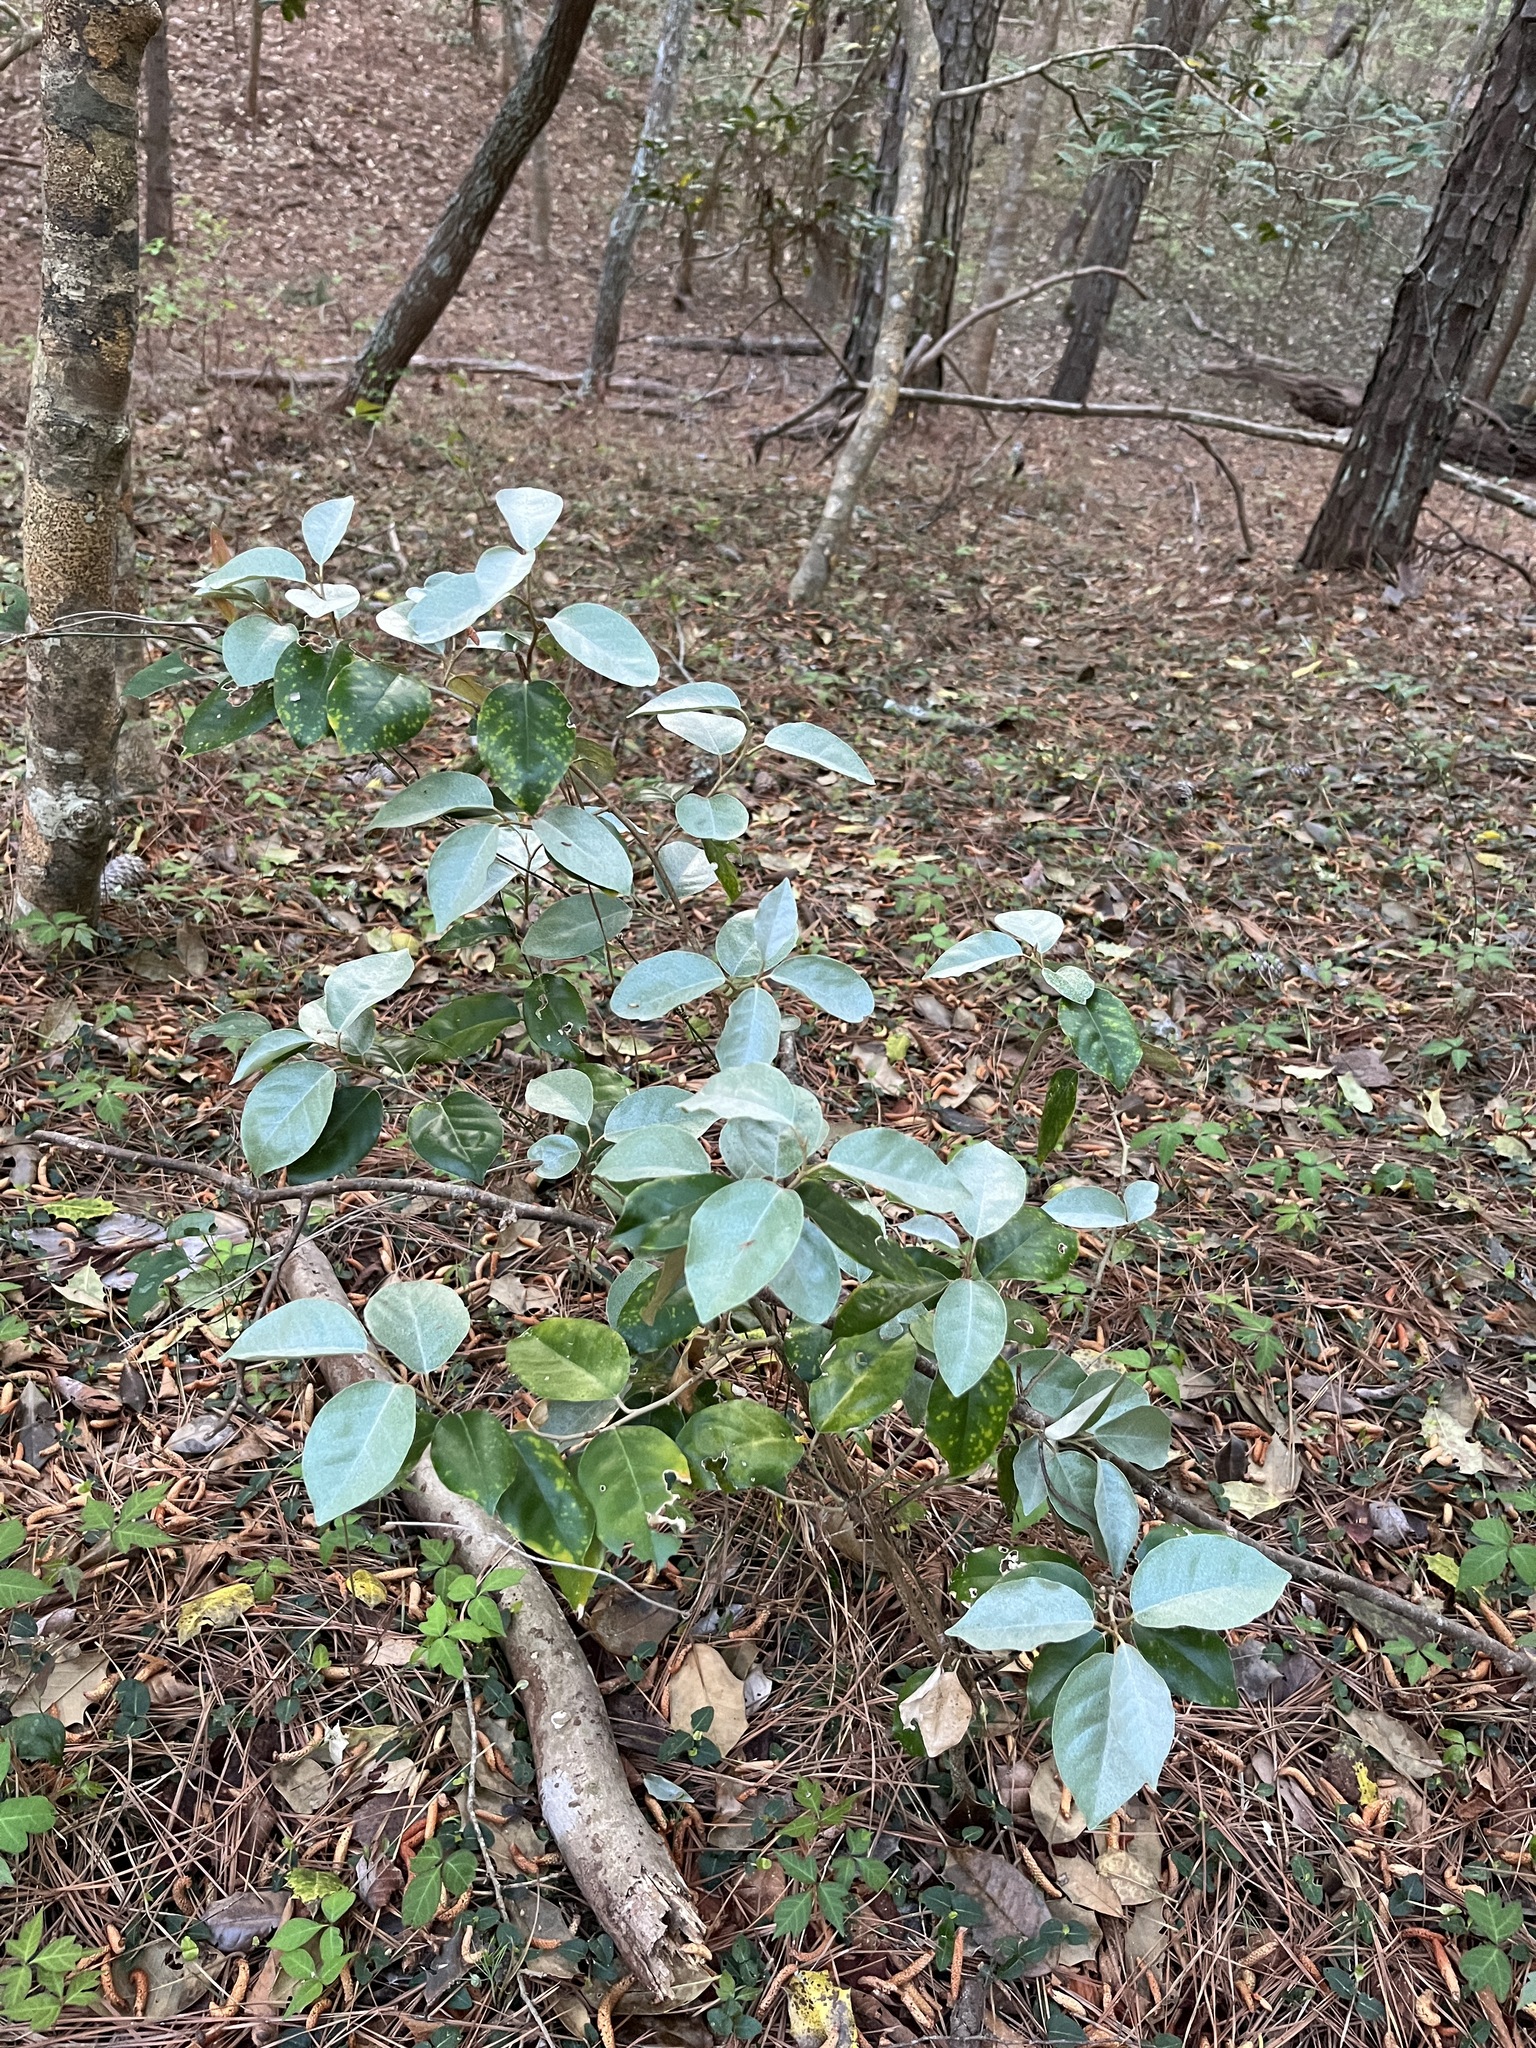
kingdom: Plantae
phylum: Tracheophyta
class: Magnoliopsida
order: Rosales
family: Elaeagnaceae
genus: Elaeagnus
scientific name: Elaeagnus pungens
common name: Spiny oleaster
